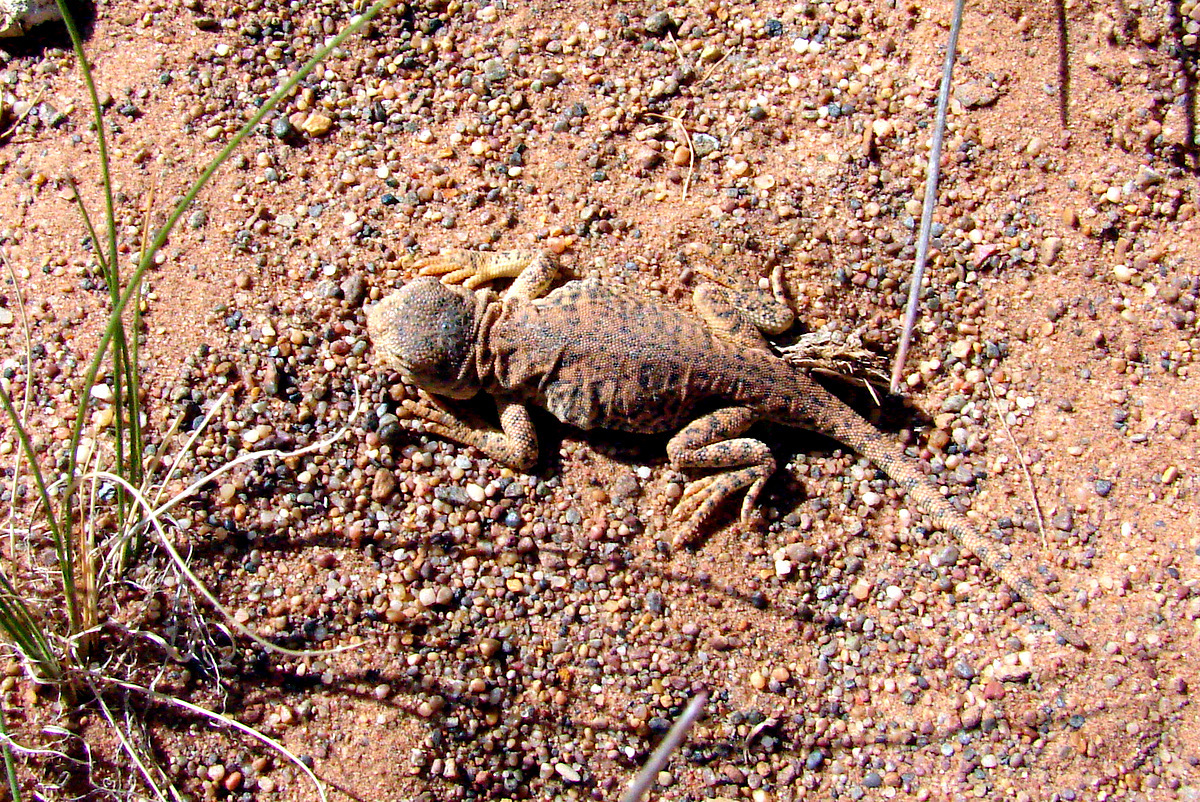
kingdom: Animalia
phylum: Chordata
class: Squamata
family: Agamidae
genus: Phrynocephalus
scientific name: Phrynocephalus vlangalii
